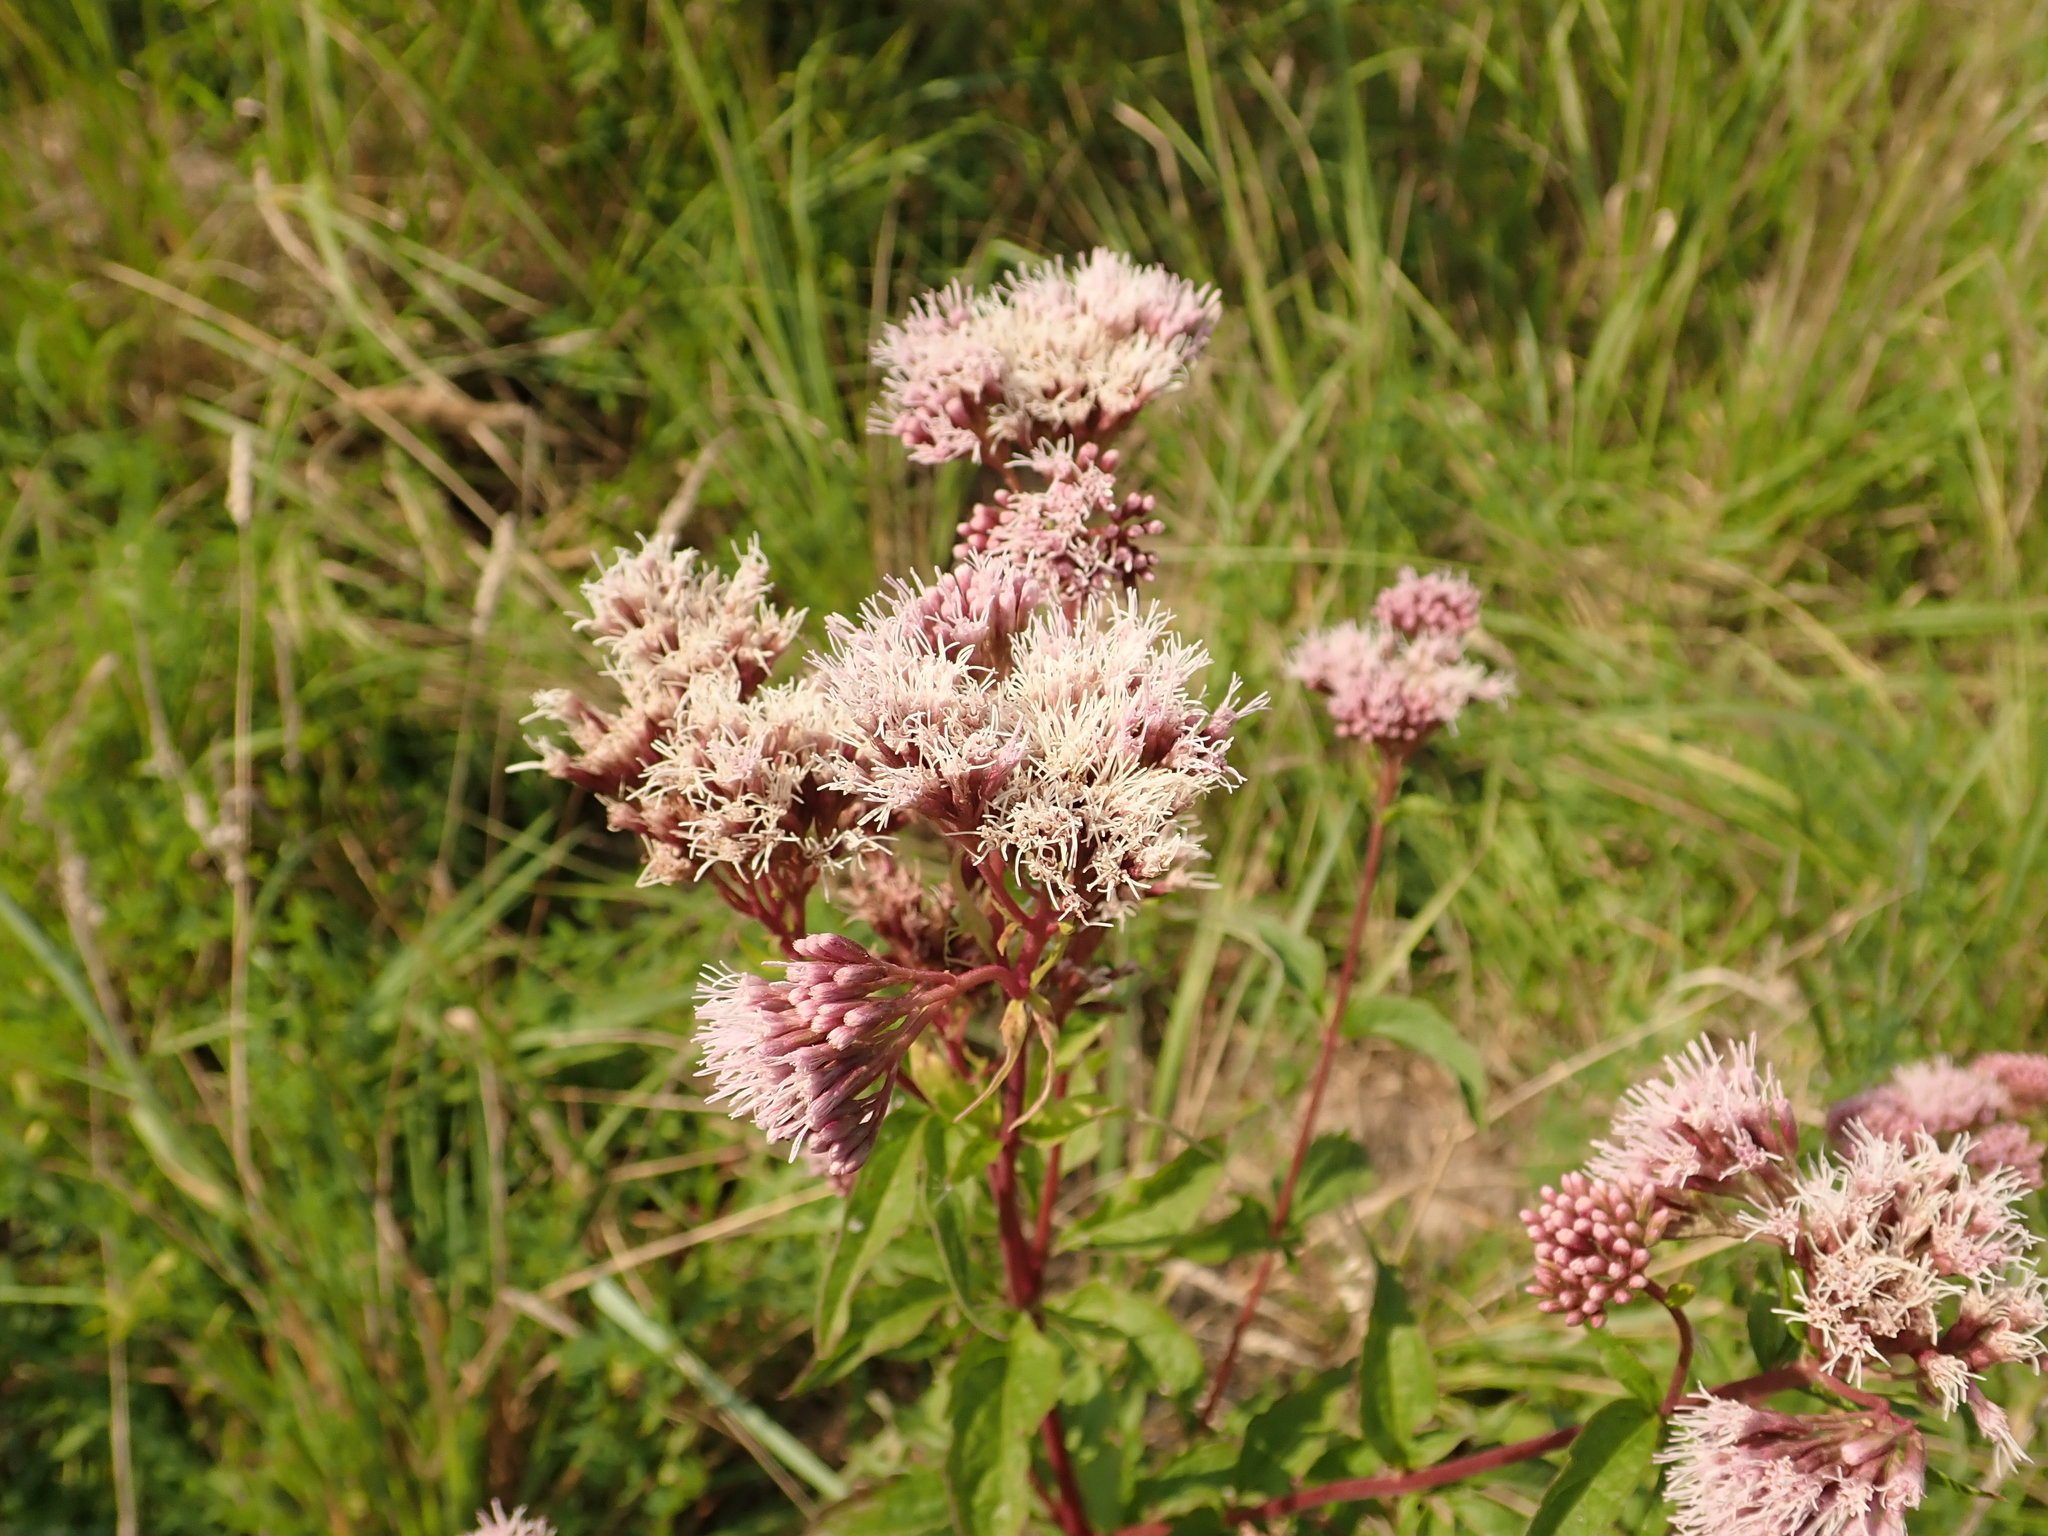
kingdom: Plantae
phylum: Tracheophyta
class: Magnoliopsida
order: Asterales
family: Asteraceae
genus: Eupatorium
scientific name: Eupatorium cannabinum
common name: Hemp-agrimony
